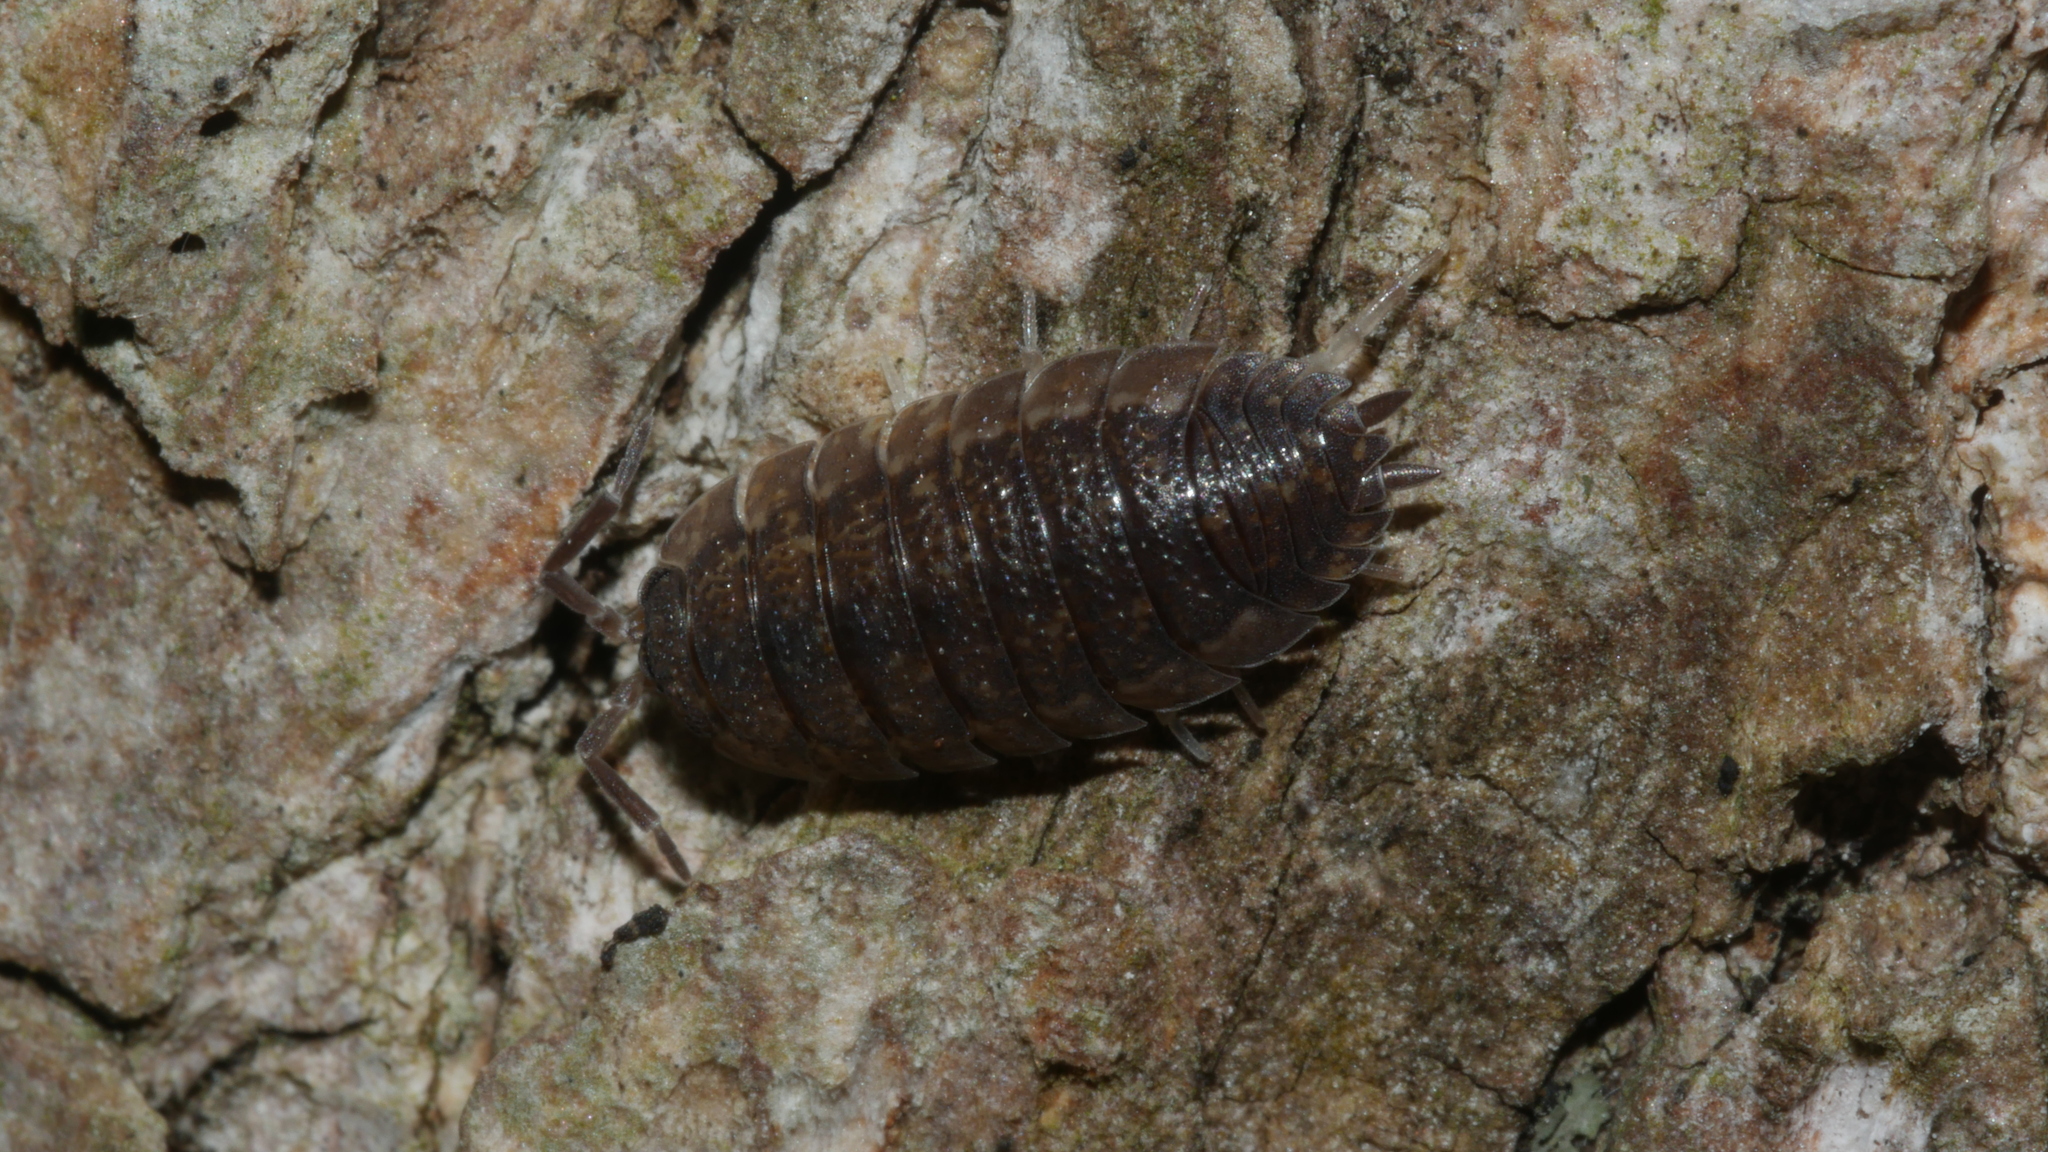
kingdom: Animalia
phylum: Arthropoda
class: Malacostraca
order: Isopoda
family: Porcellionidae
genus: Porcellio
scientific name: Porcellio scaber
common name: Common rough woodlouse
